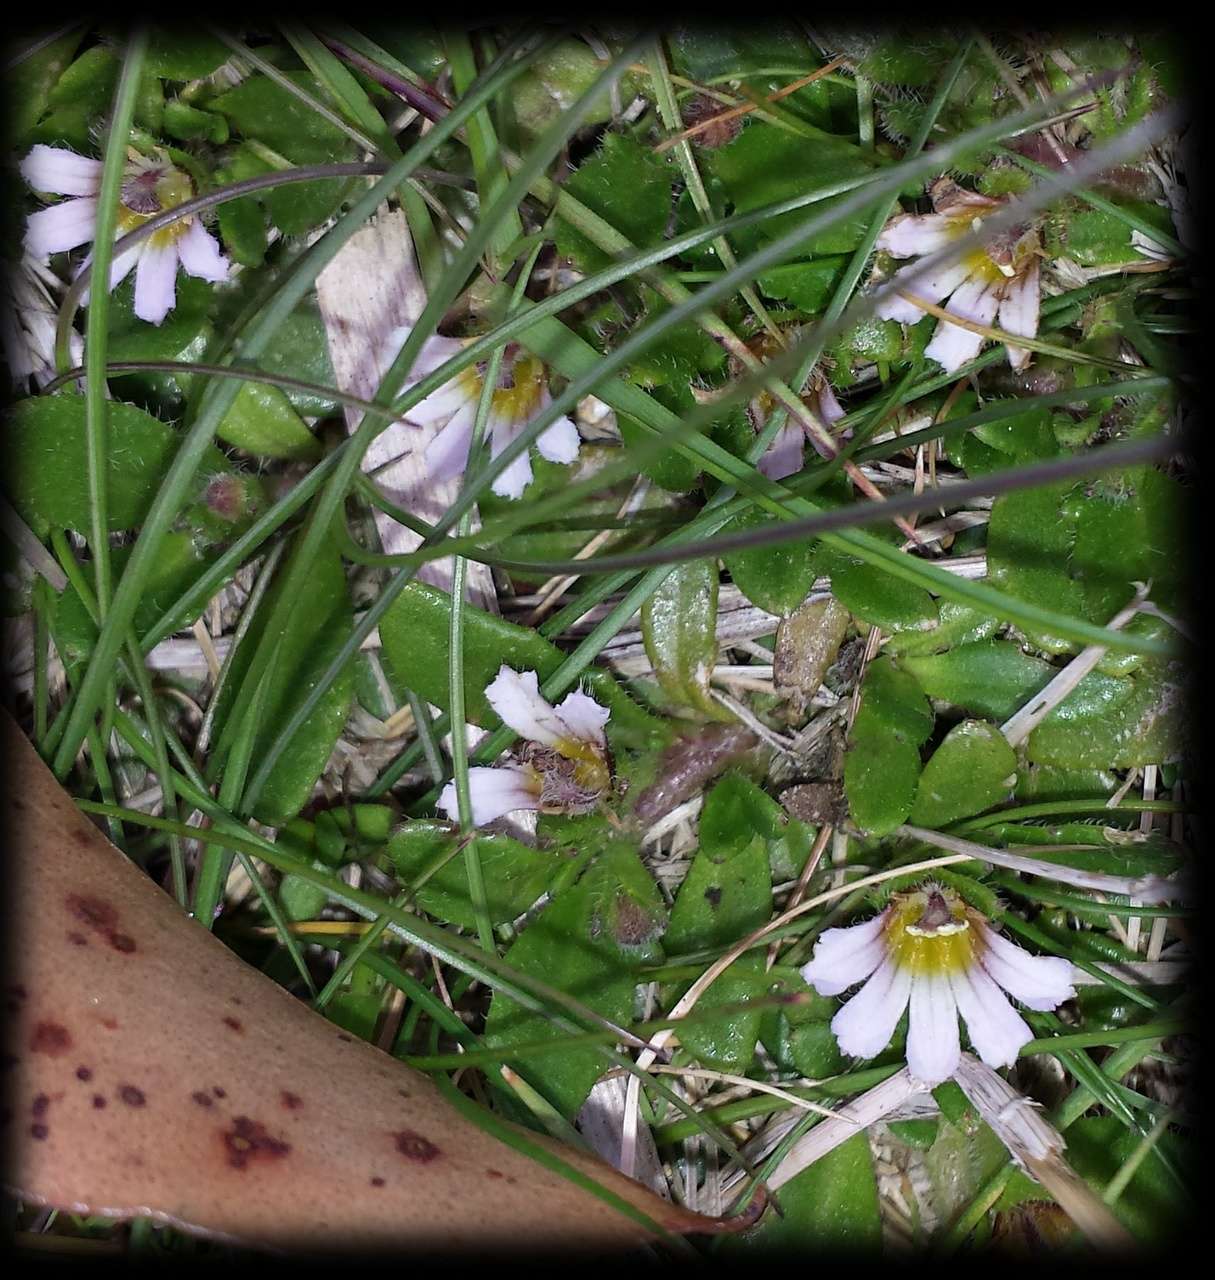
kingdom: Plantae
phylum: Tracheophyta
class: Magnoliopsida
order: Asterales
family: Goodeniaceae
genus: Scaevola
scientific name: Scaevola hookeri
